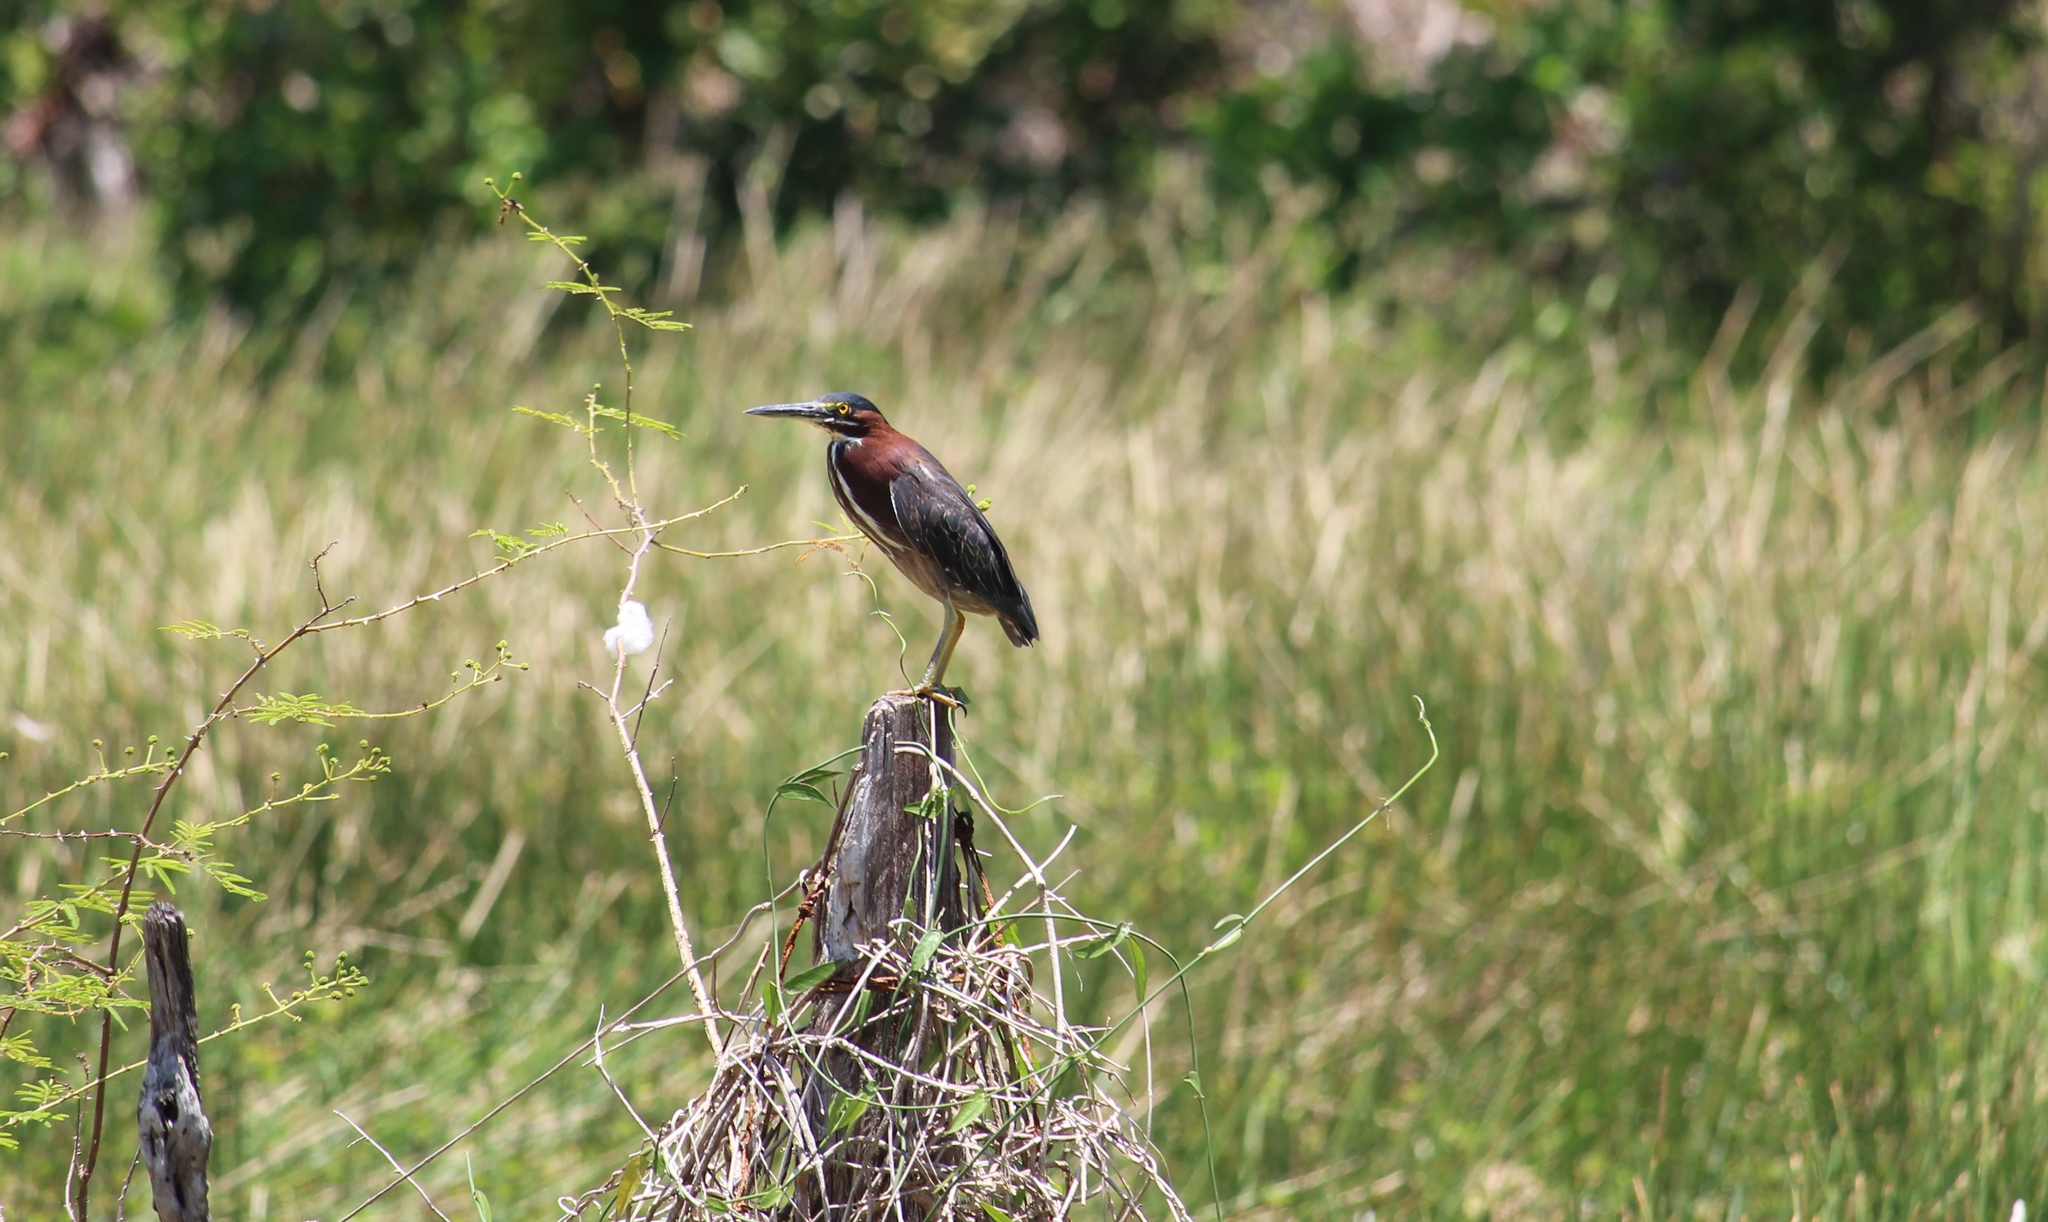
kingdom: Animalia
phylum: Chordata
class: Aves
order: Pelecaniformes
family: Ardeidae
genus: Butorides
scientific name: Butorides virescens
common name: Green heron
